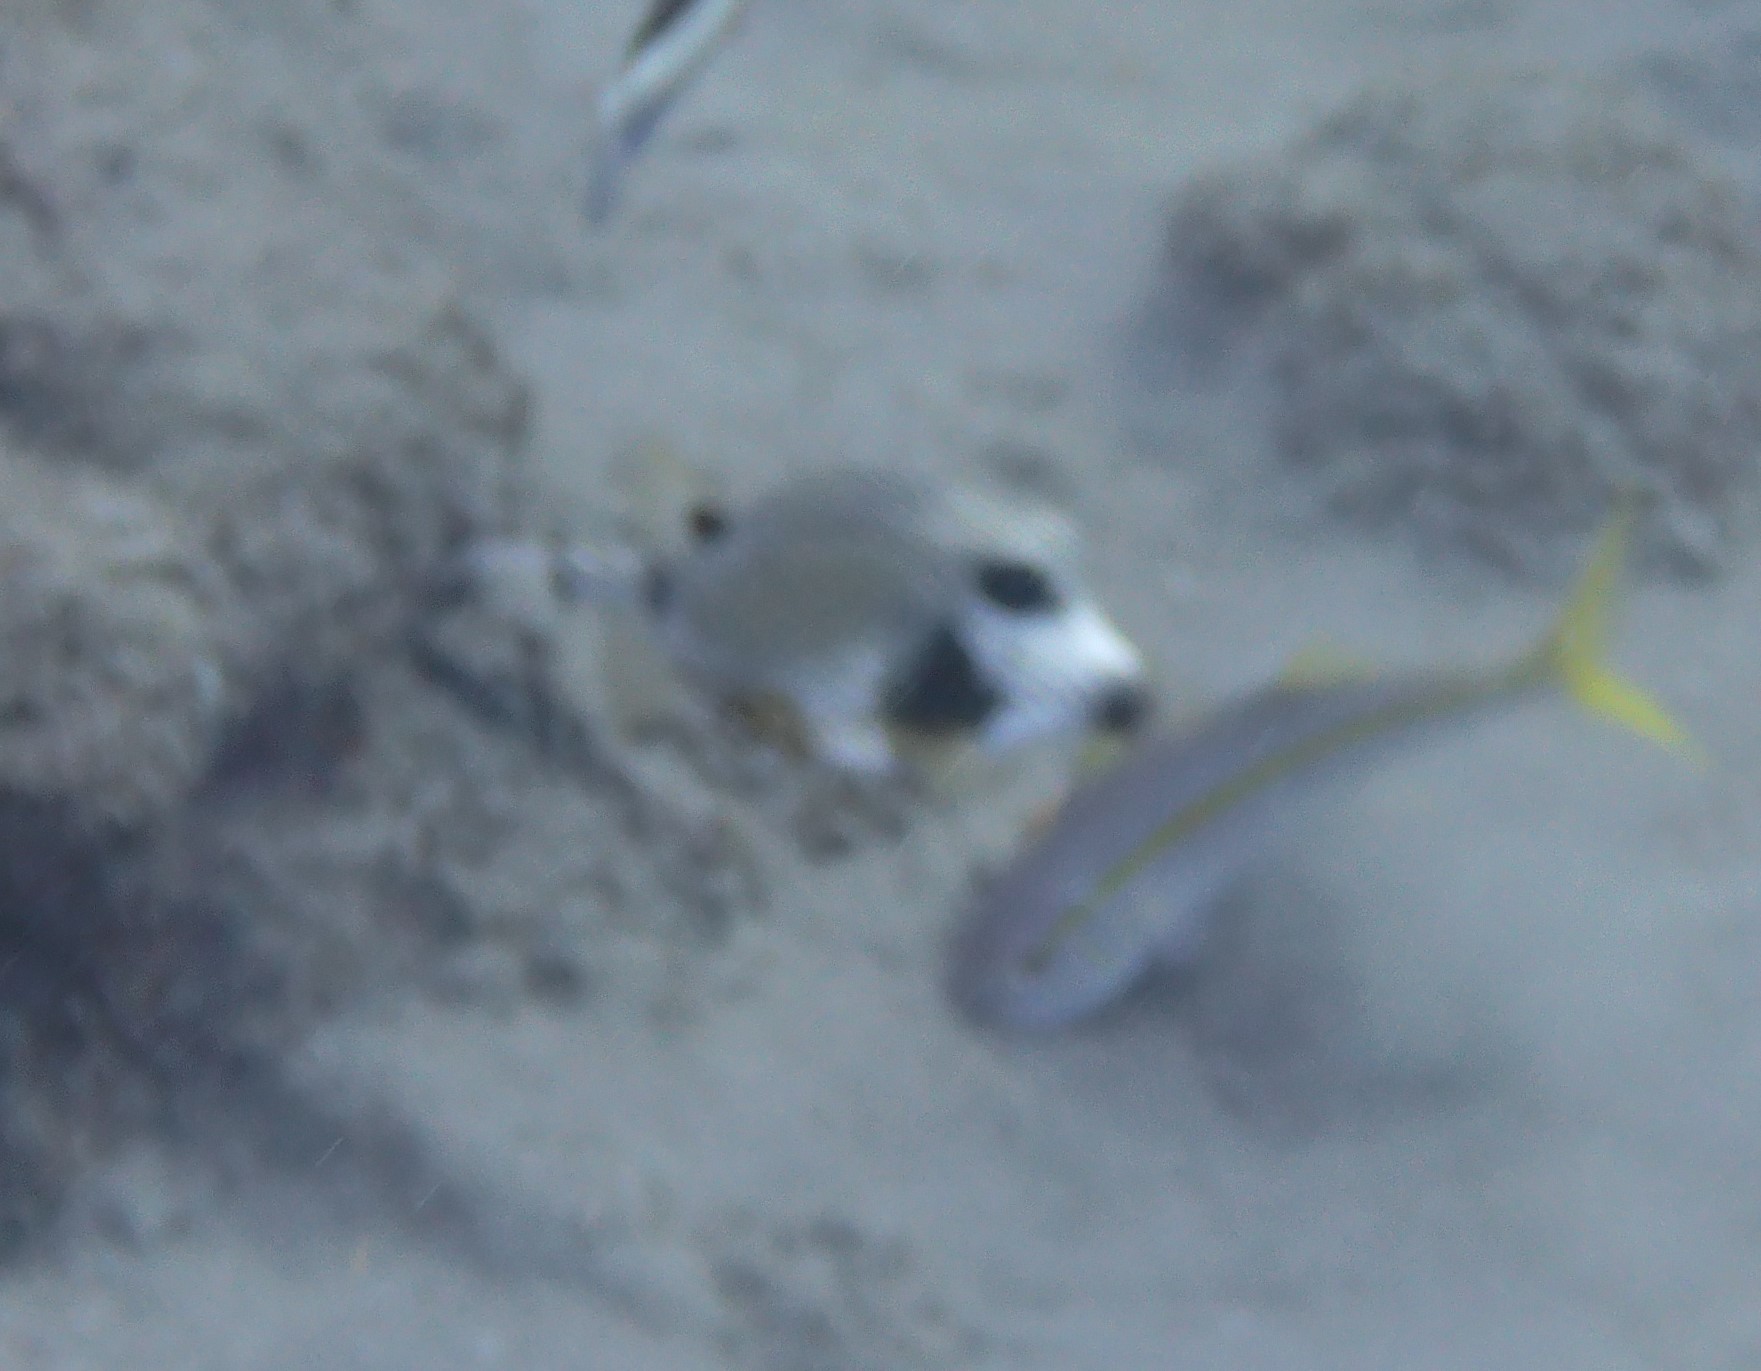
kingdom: Animalia
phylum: Chordata
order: Tetraodontiformes
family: Ostraciidae
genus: Lactophrys
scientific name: Lactophrys triqueter
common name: Smooth trunkfish
